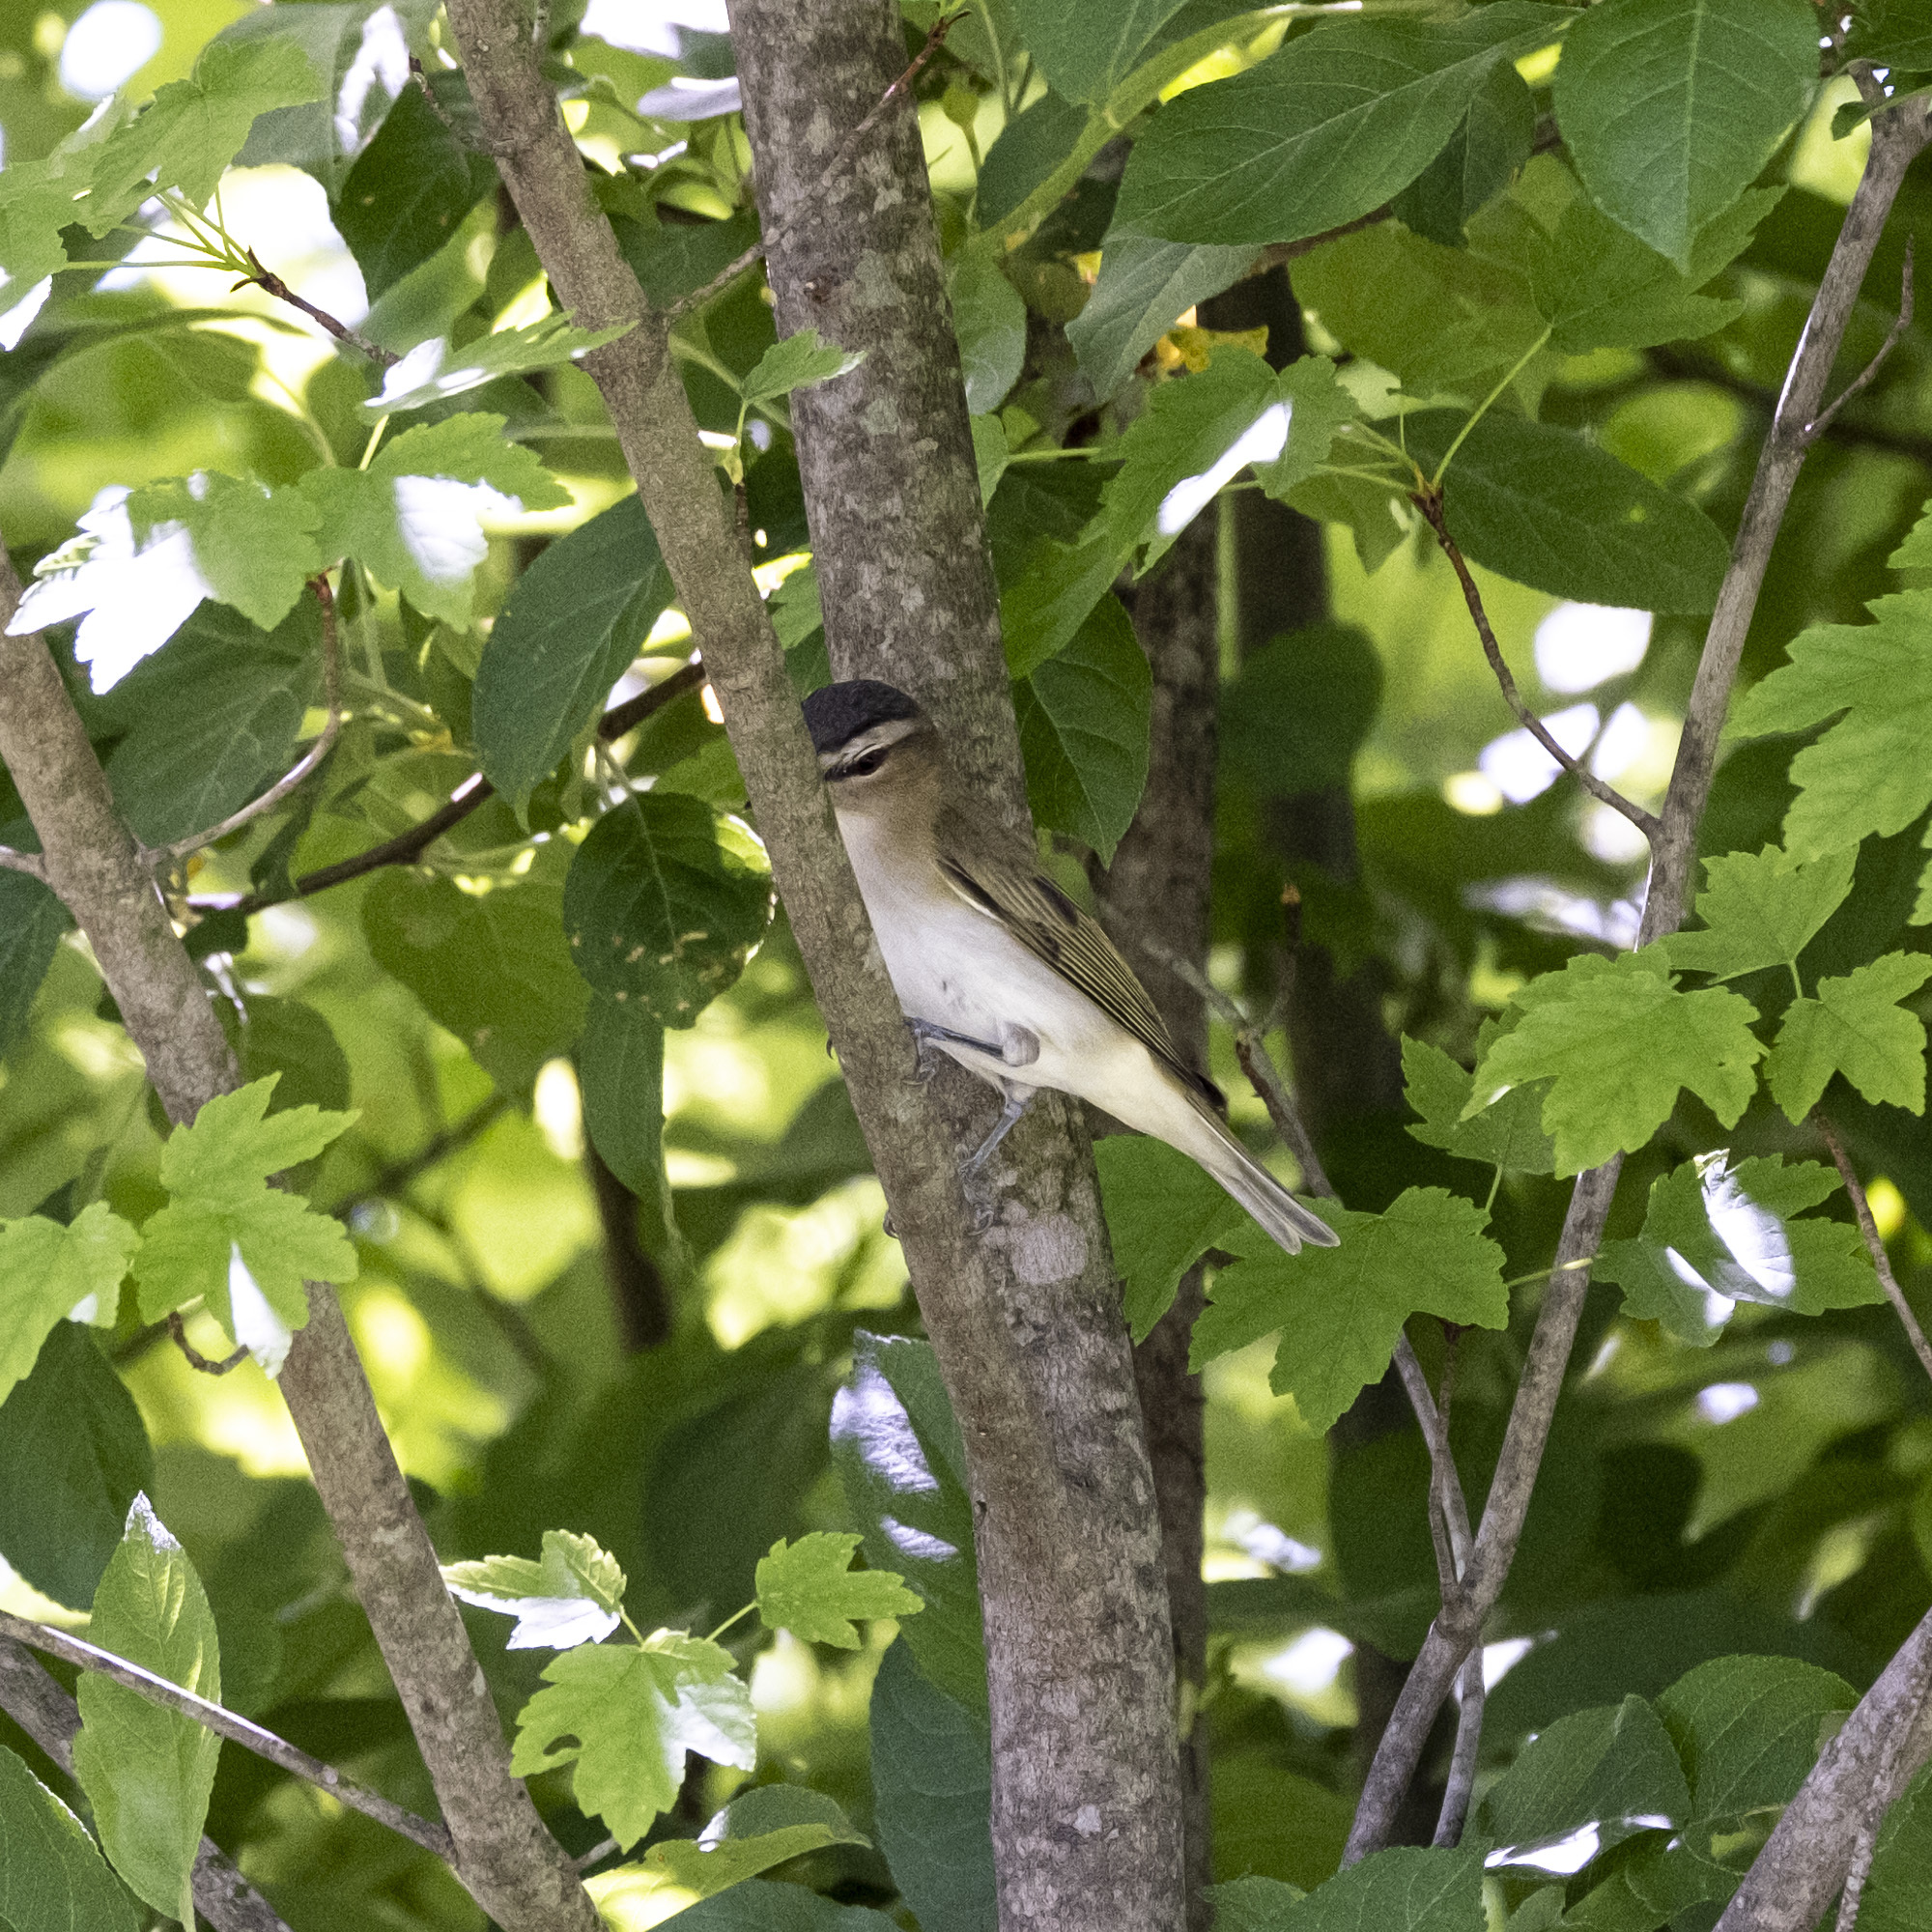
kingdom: Animalia
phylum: Chordata
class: Aves
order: Passeriformes
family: Vireonidae
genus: Vireo
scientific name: Vireo olivaceus
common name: Red-eyed vireo
